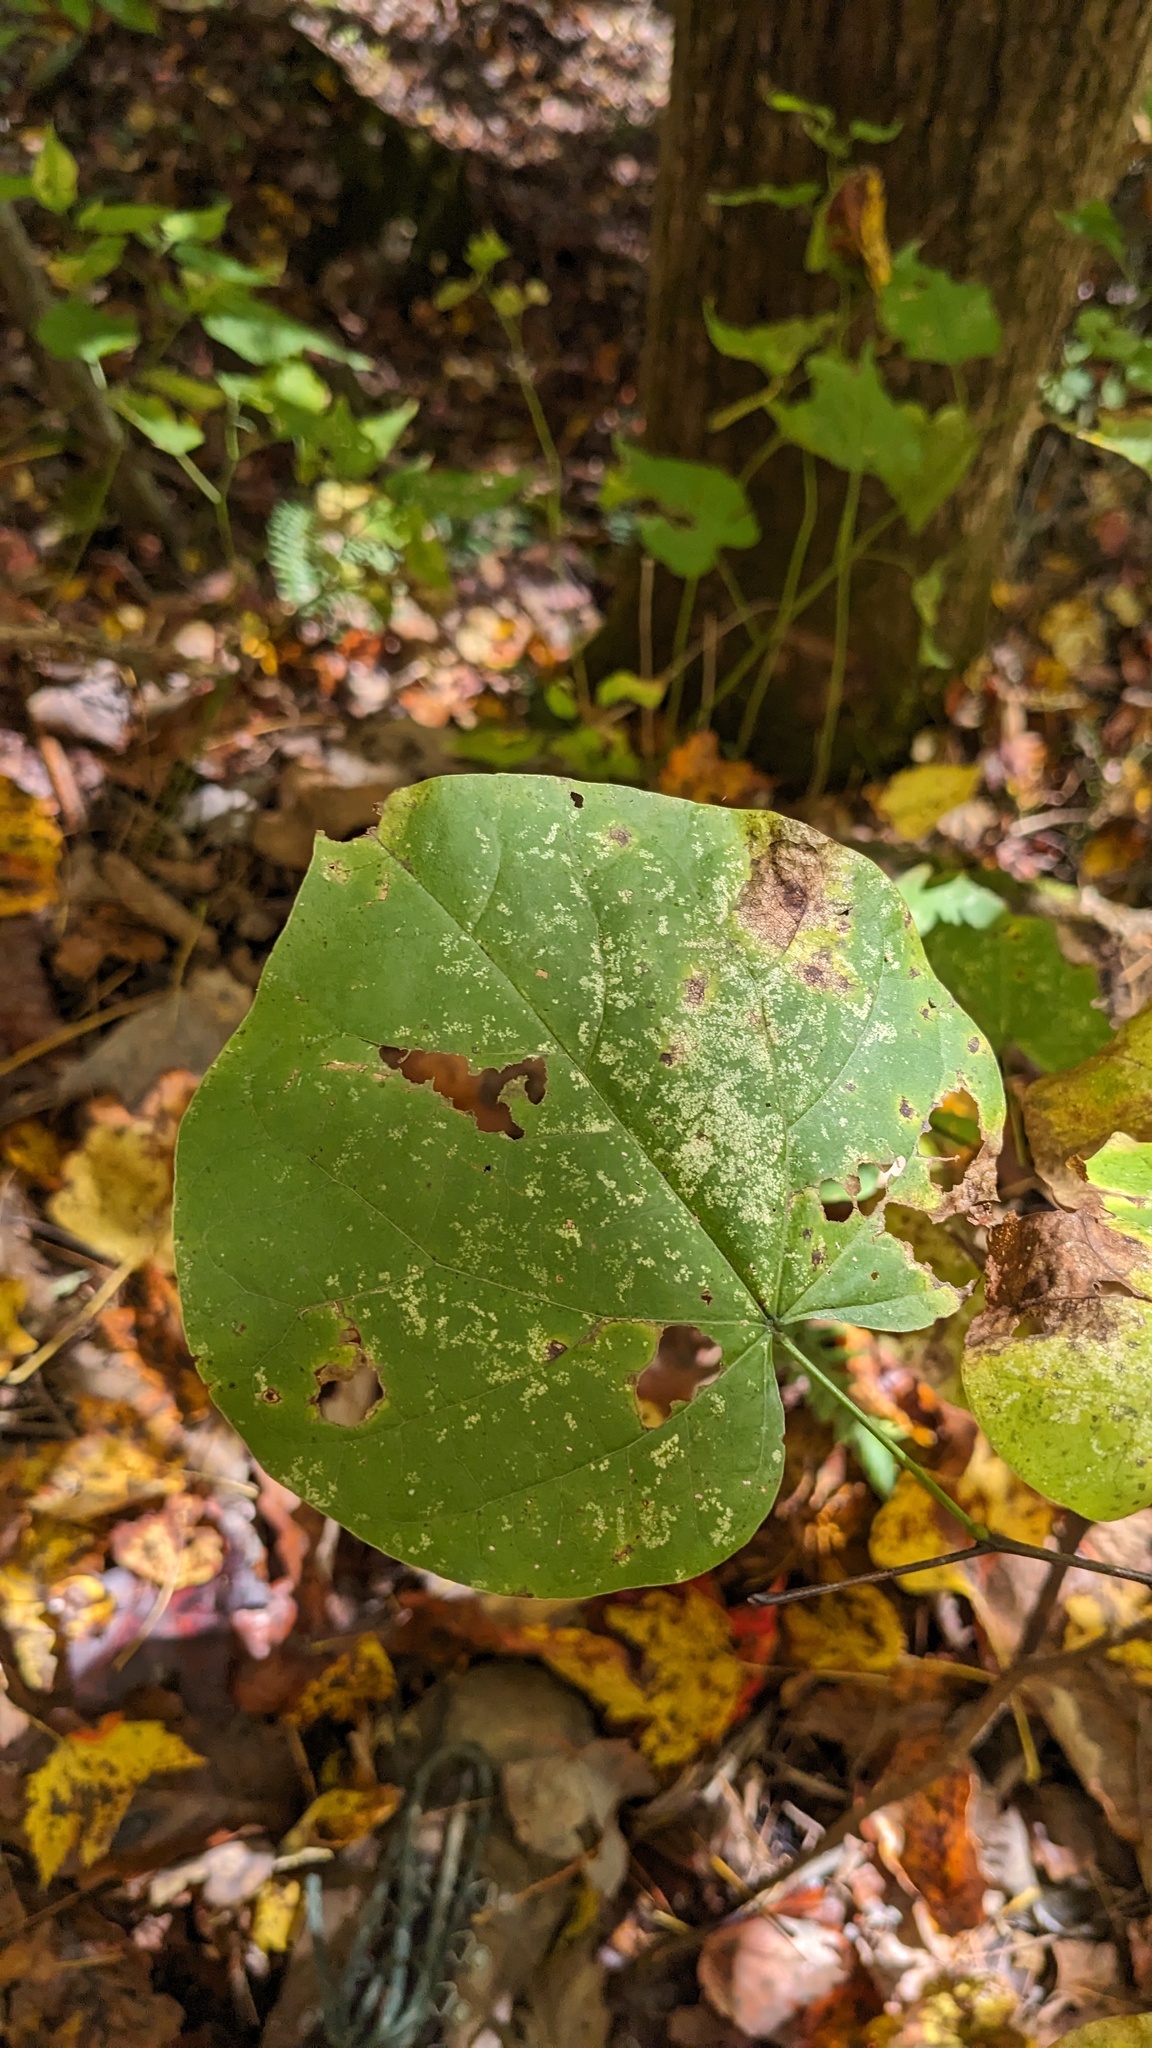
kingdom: Plantae
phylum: Tracheophyta
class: Magnoliopsida
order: Fabales
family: Fabaceae
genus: Cercis
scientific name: Cercis canadensis
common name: Eastern redbud
